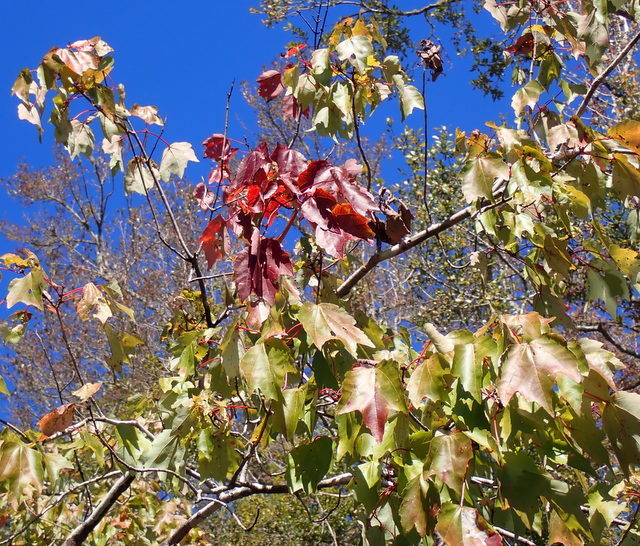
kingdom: Plantae
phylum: Tracheophyta
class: Magnoliopsida
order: Sapindales
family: Sapindaceae
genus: Acer
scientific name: Acer rubrum
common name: Red maple
